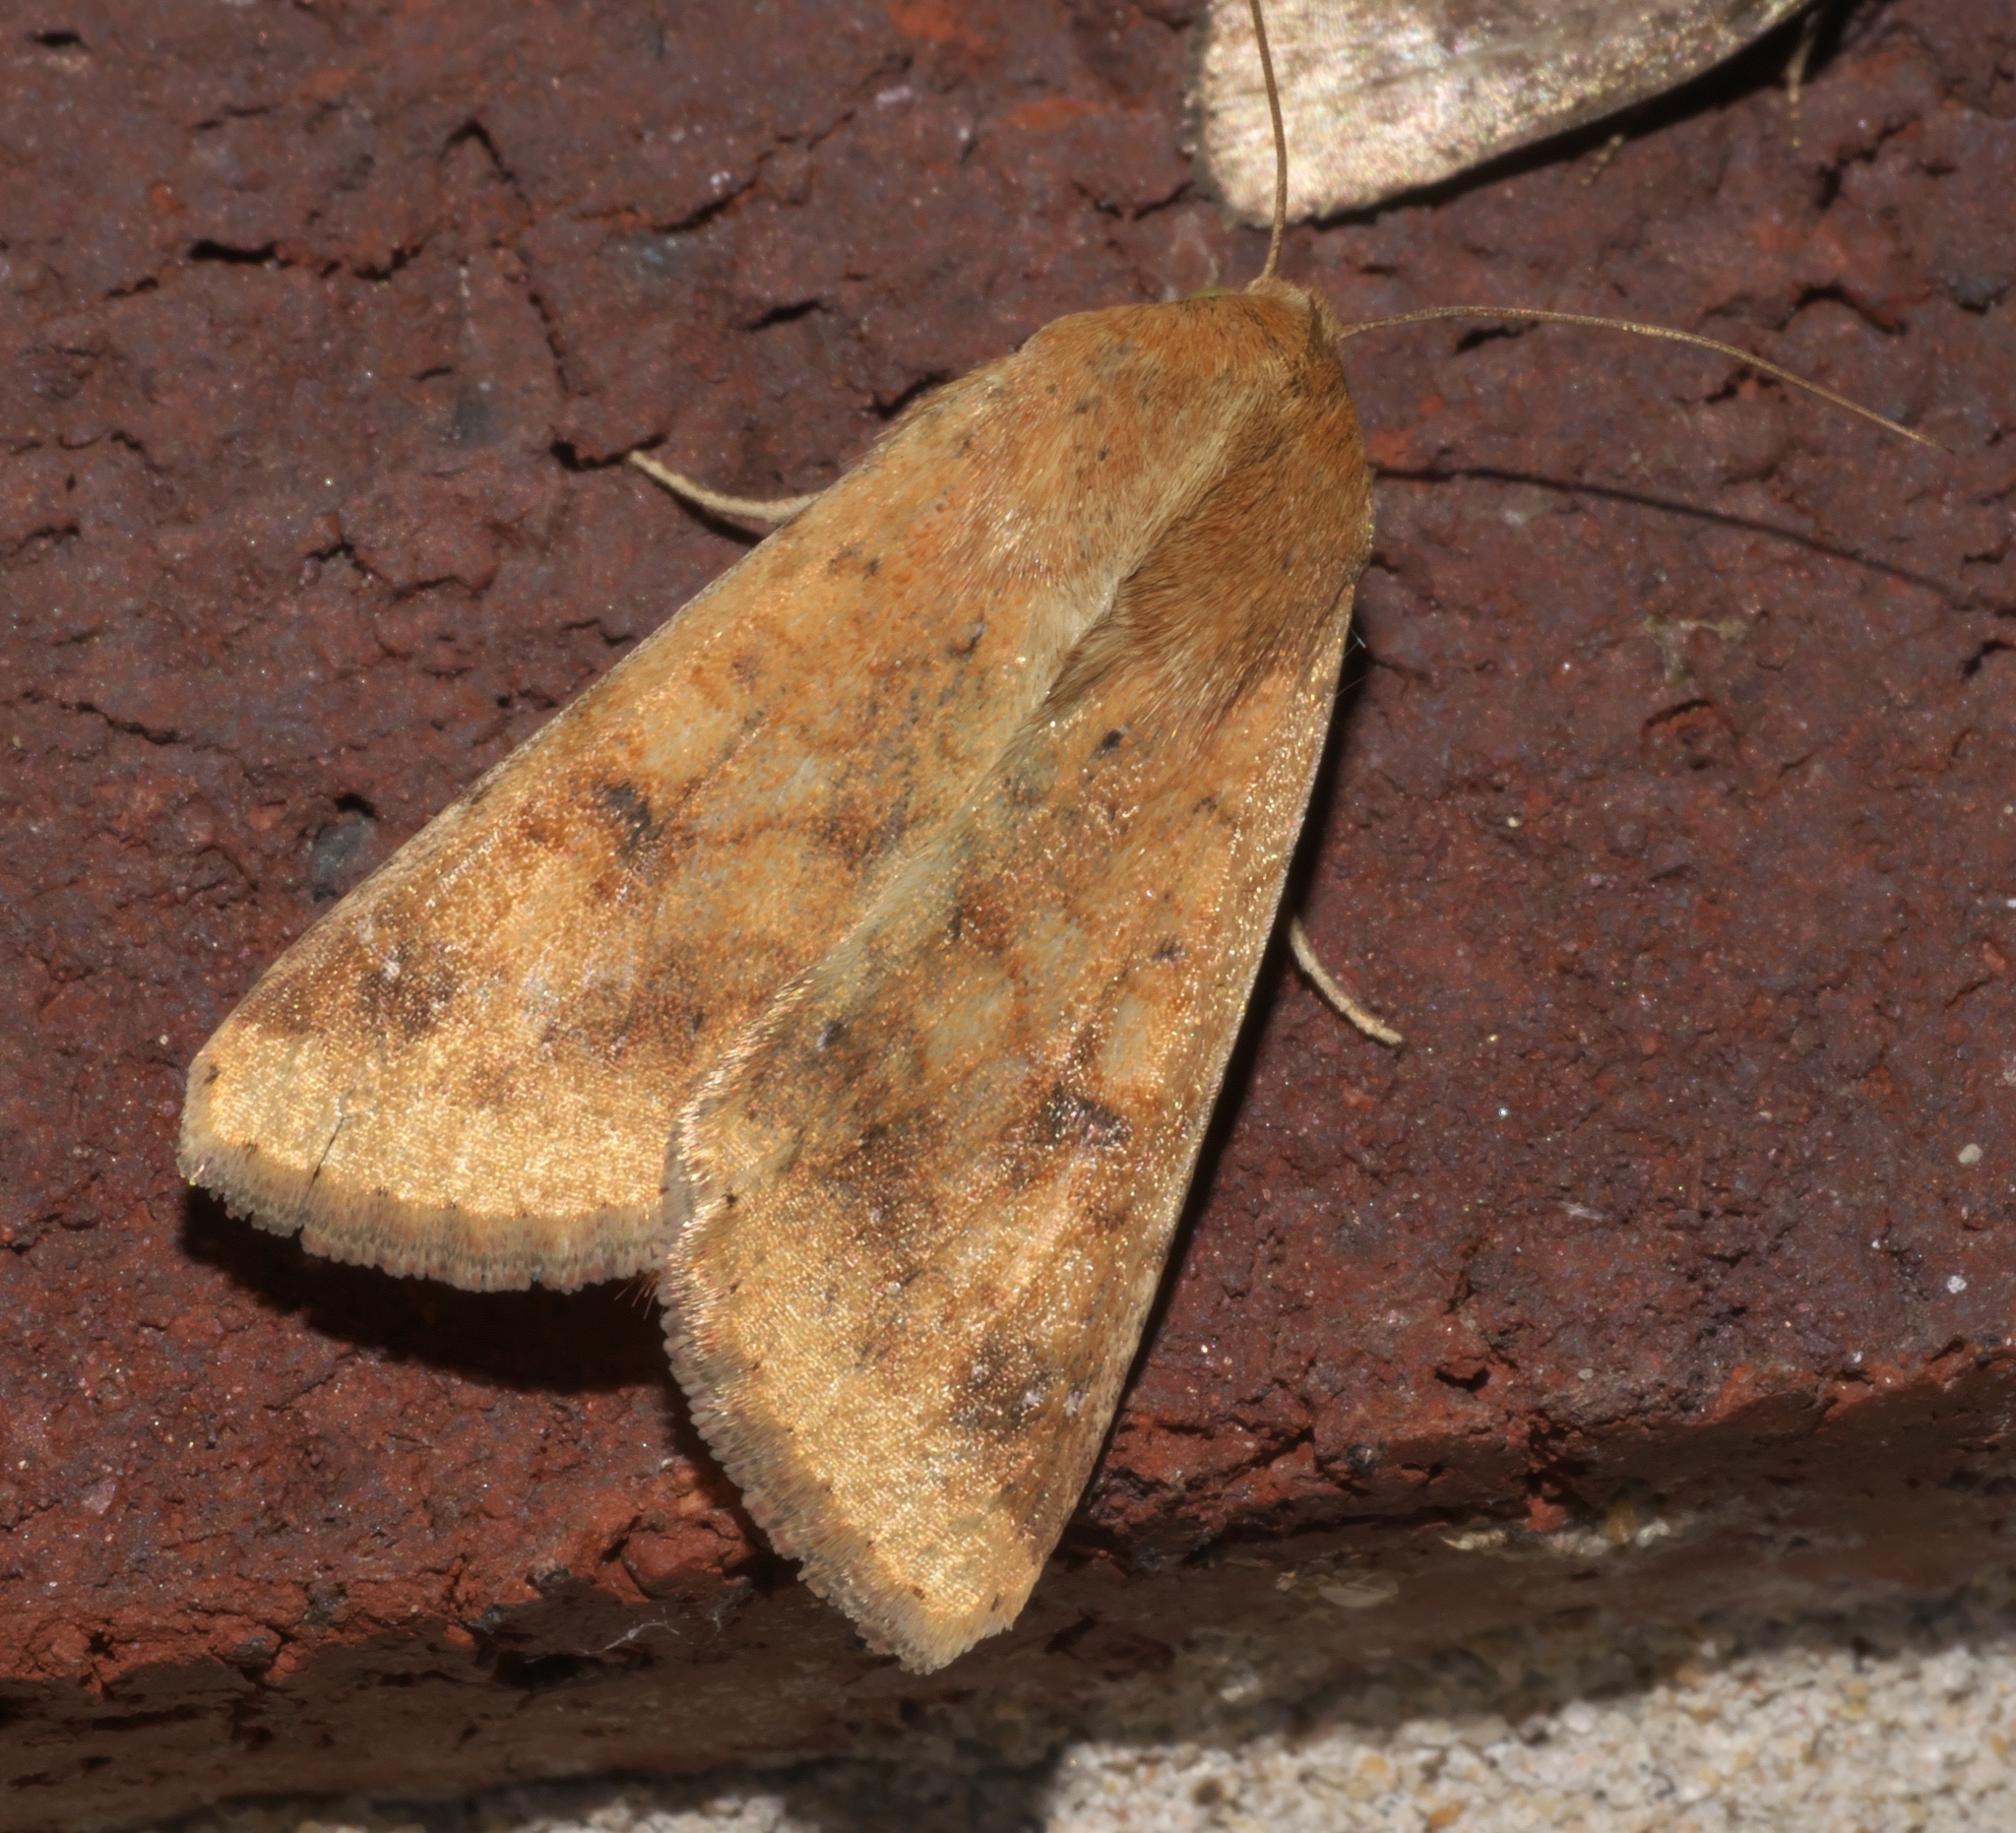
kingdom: Animalia
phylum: Arthropoda
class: Insecta
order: Lepidoptera
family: Noctuidae
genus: Helicoverpa
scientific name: Helicoverpa zea
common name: Bollworm
